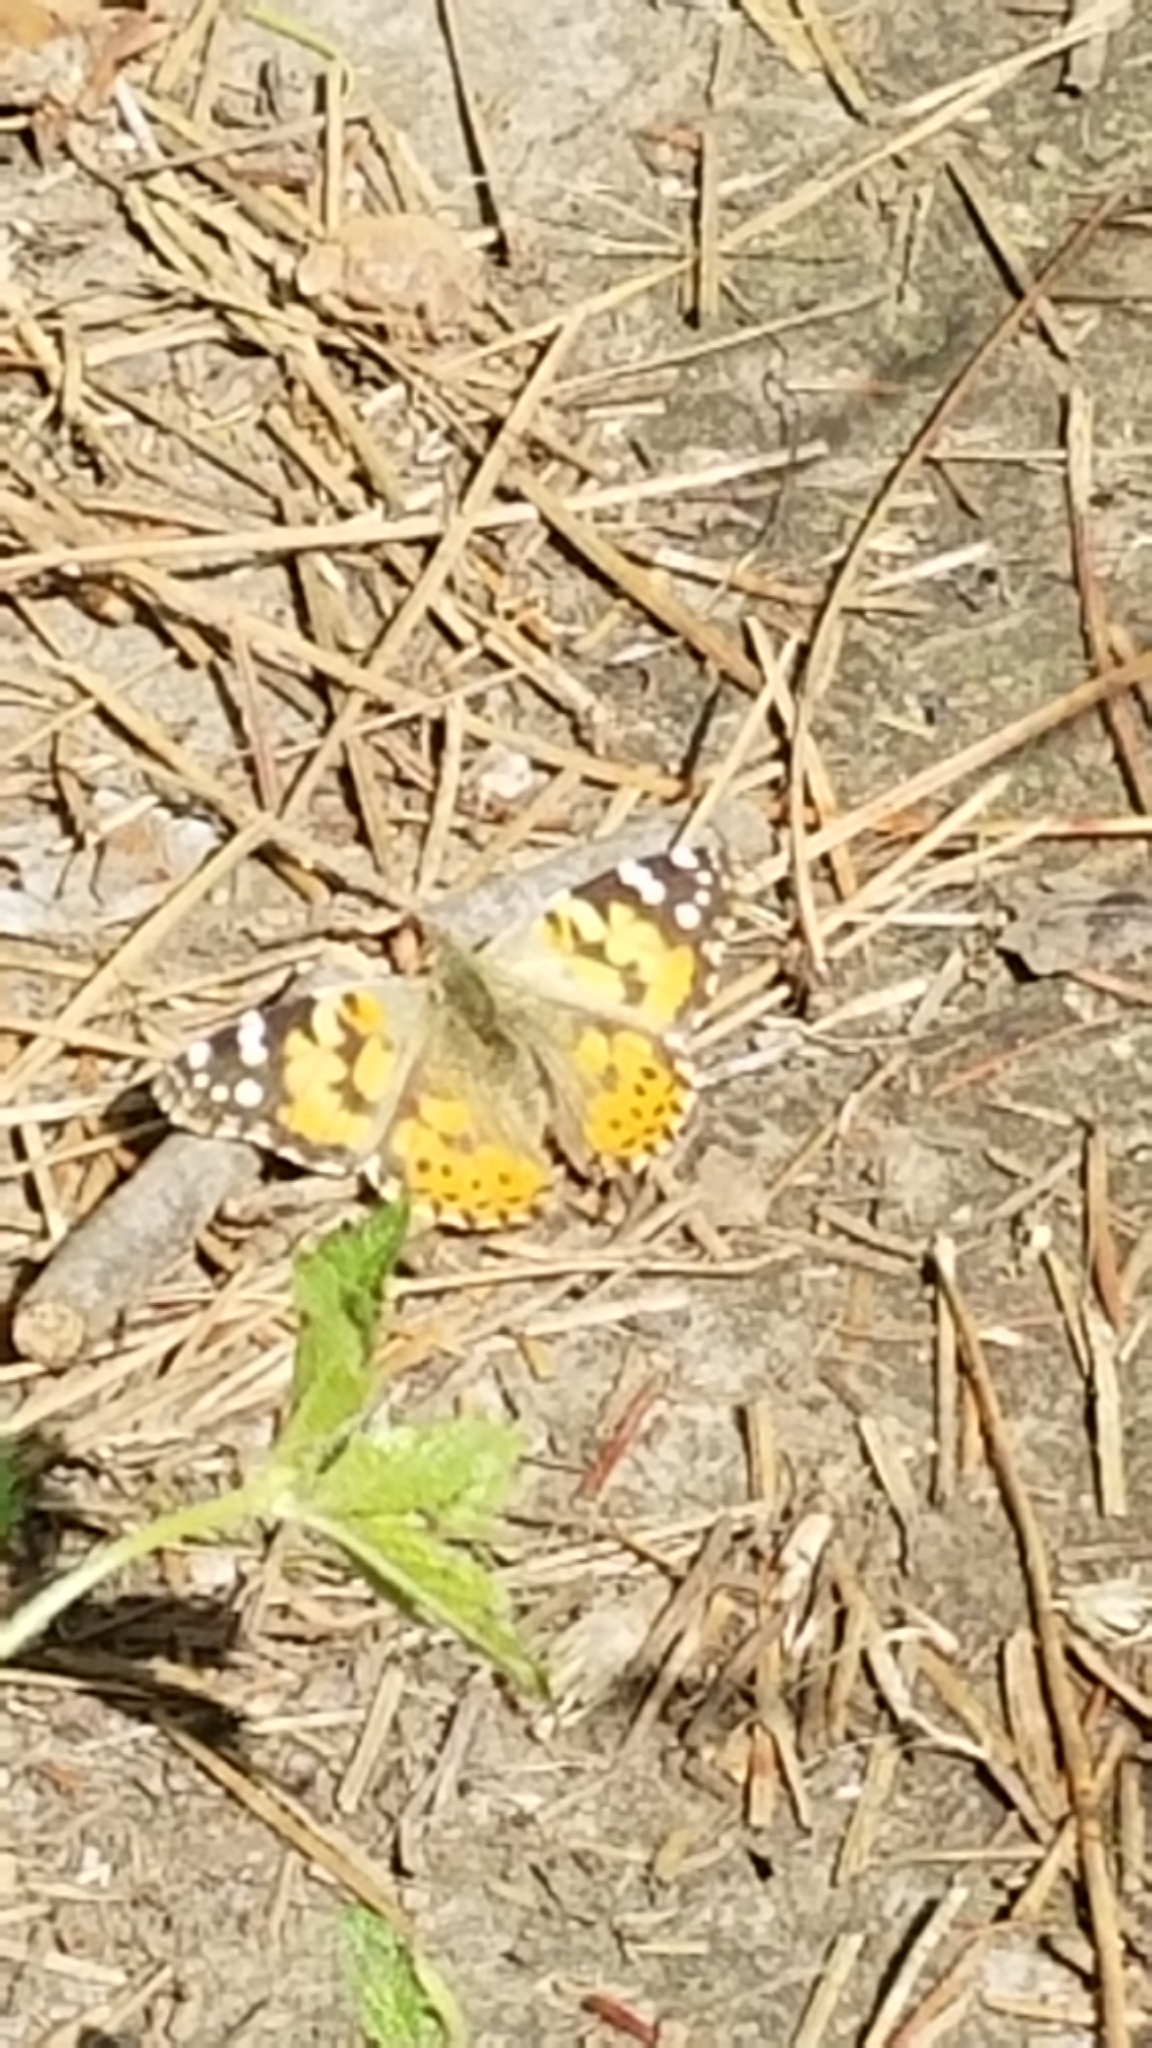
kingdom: Animalia
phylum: Arthropoda
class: Insecta
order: Lepidoptera
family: Nymphalidae
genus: Vanessa
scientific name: Vanessa cardui
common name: Painted lady
